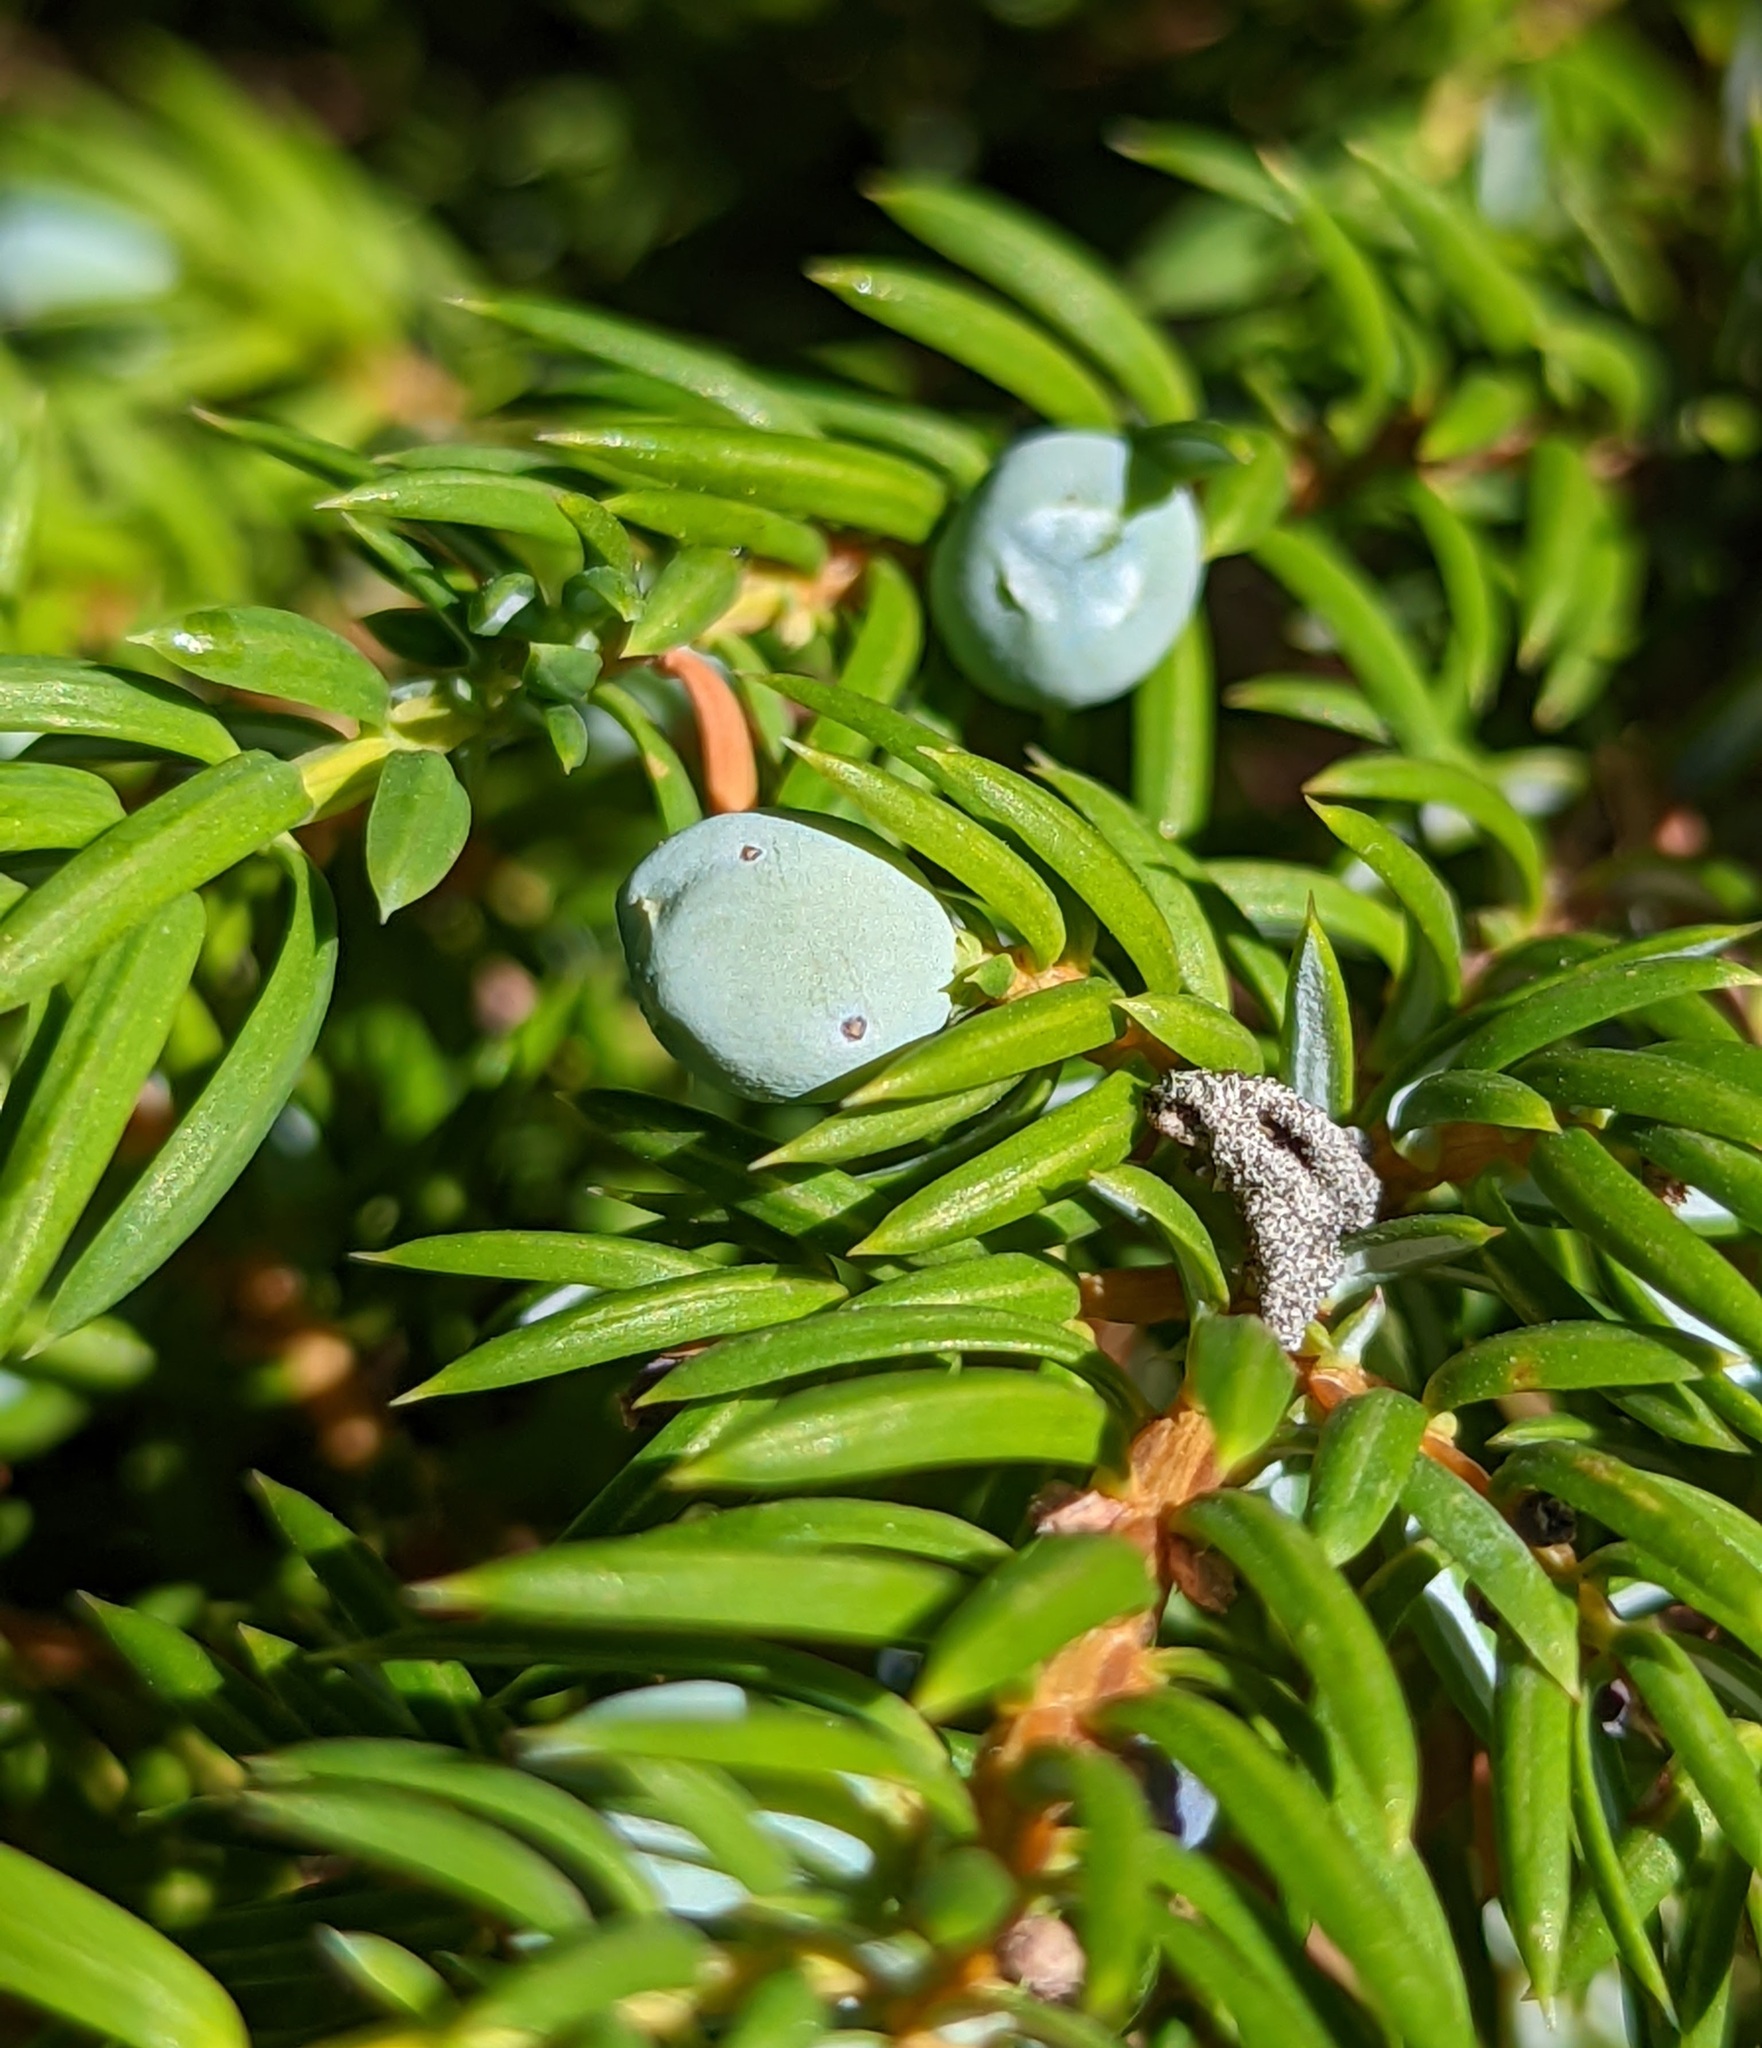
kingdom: Plantae
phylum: Tracheophyta
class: Pinopsida
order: Pinales
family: Cupressaceae
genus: Juniperus
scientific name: Juniperus communis
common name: Common juniper
